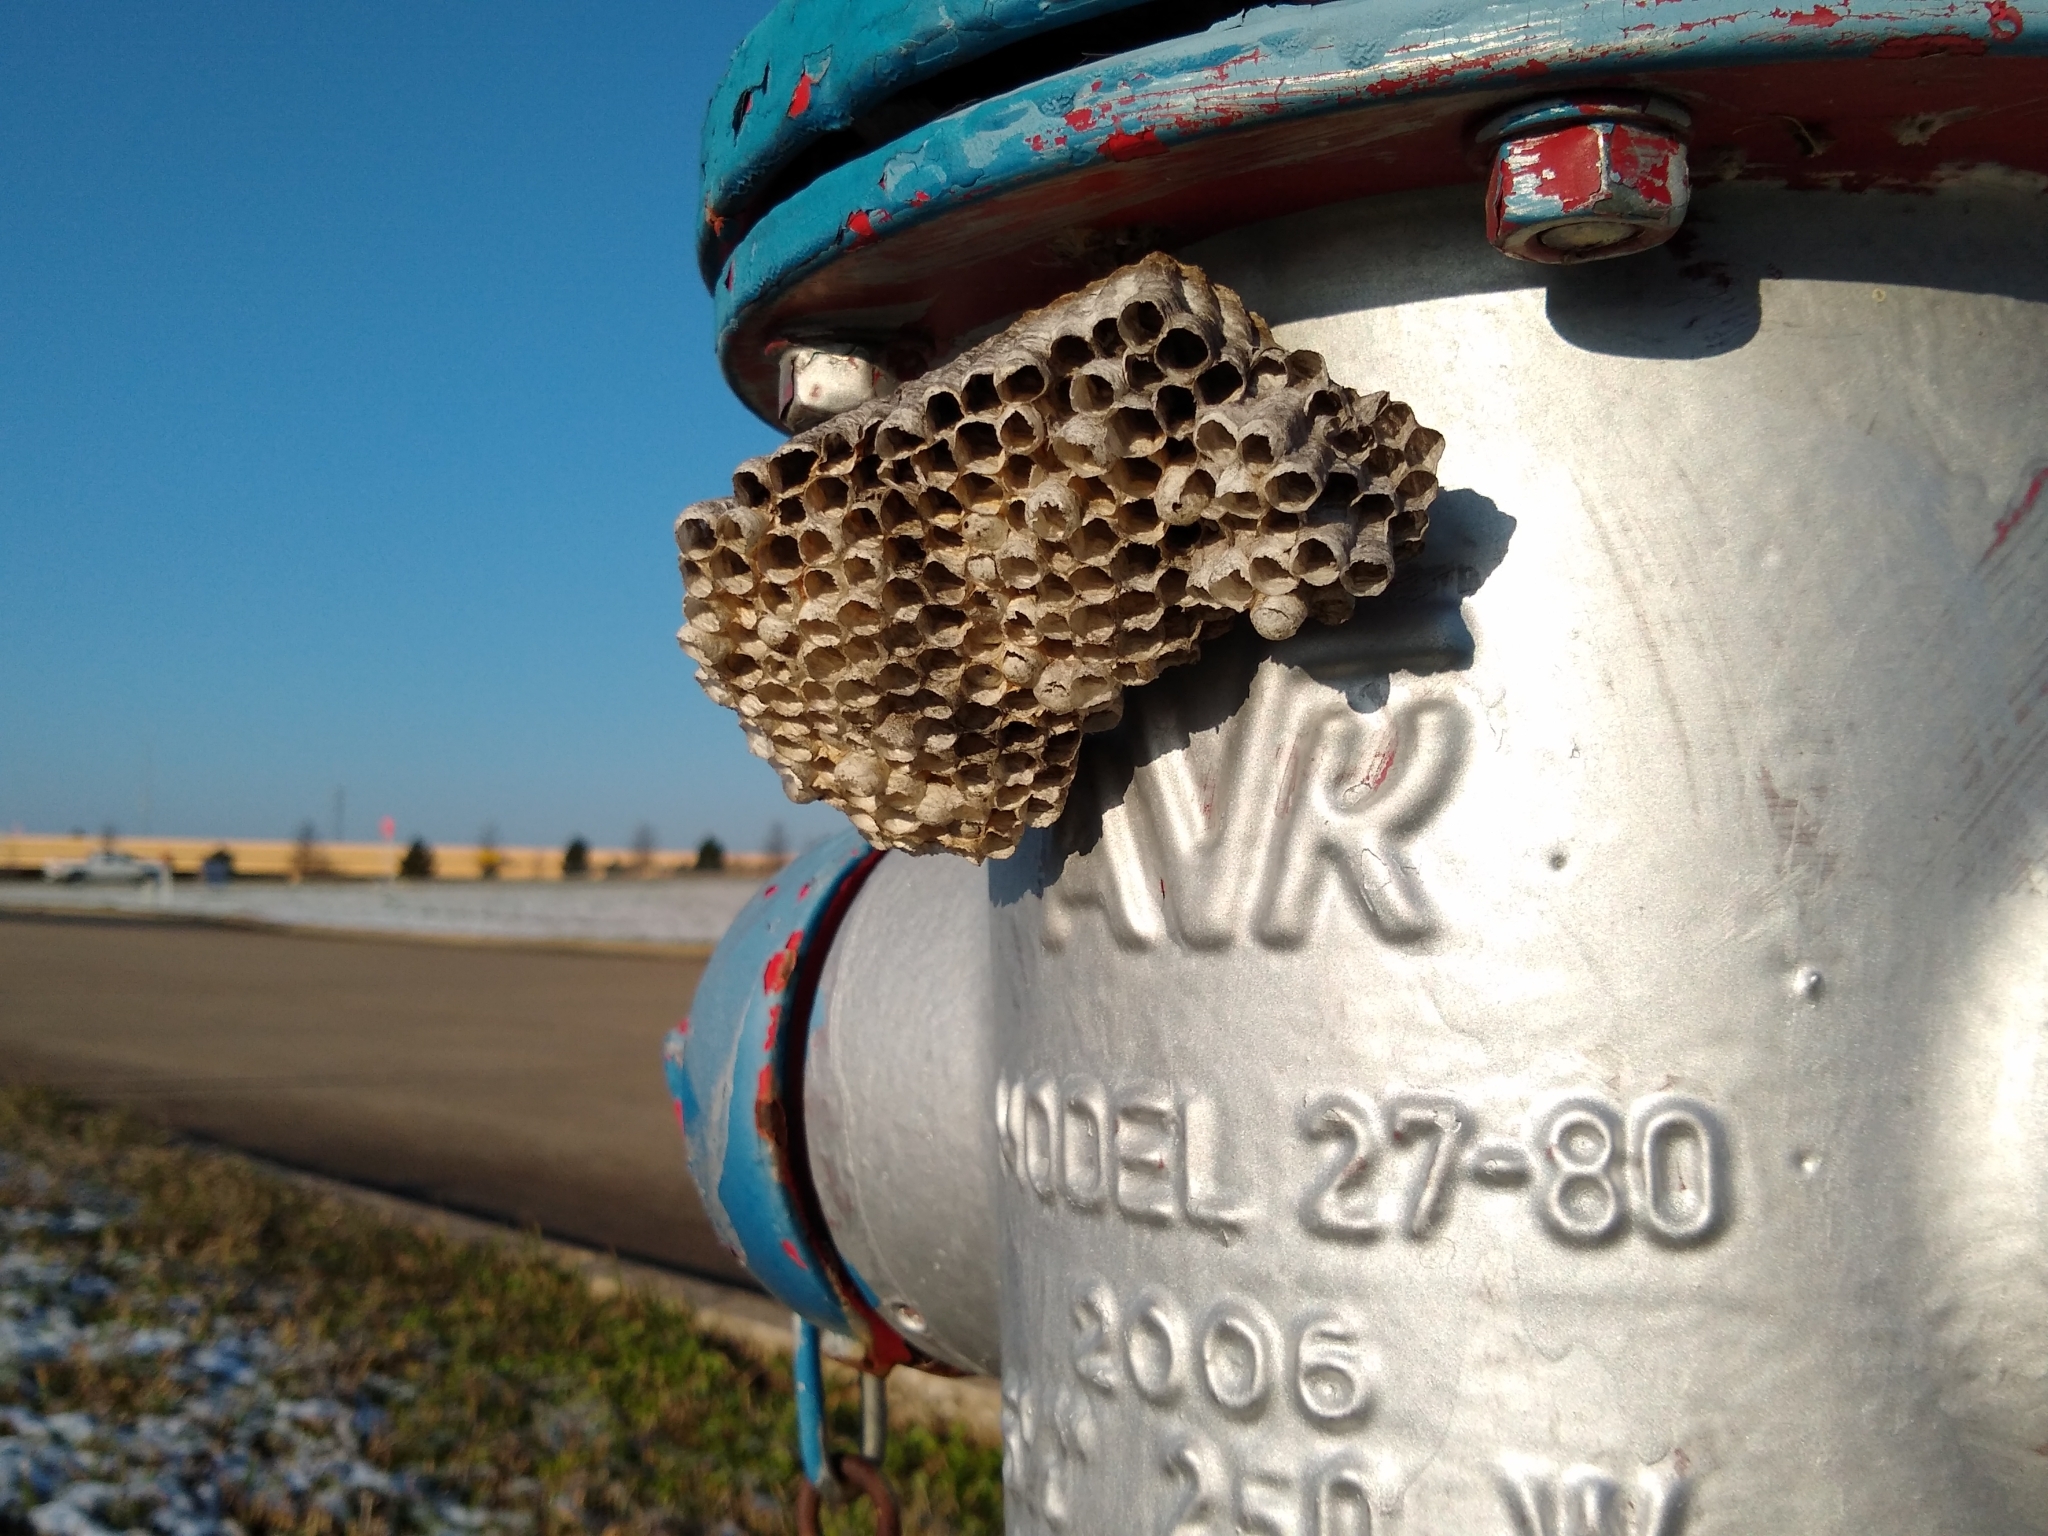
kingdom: Animalia
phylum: Arthropoda
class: Insecta
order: Hymenoptera
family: Eumenidae
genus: Polistes
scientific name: Polistes
